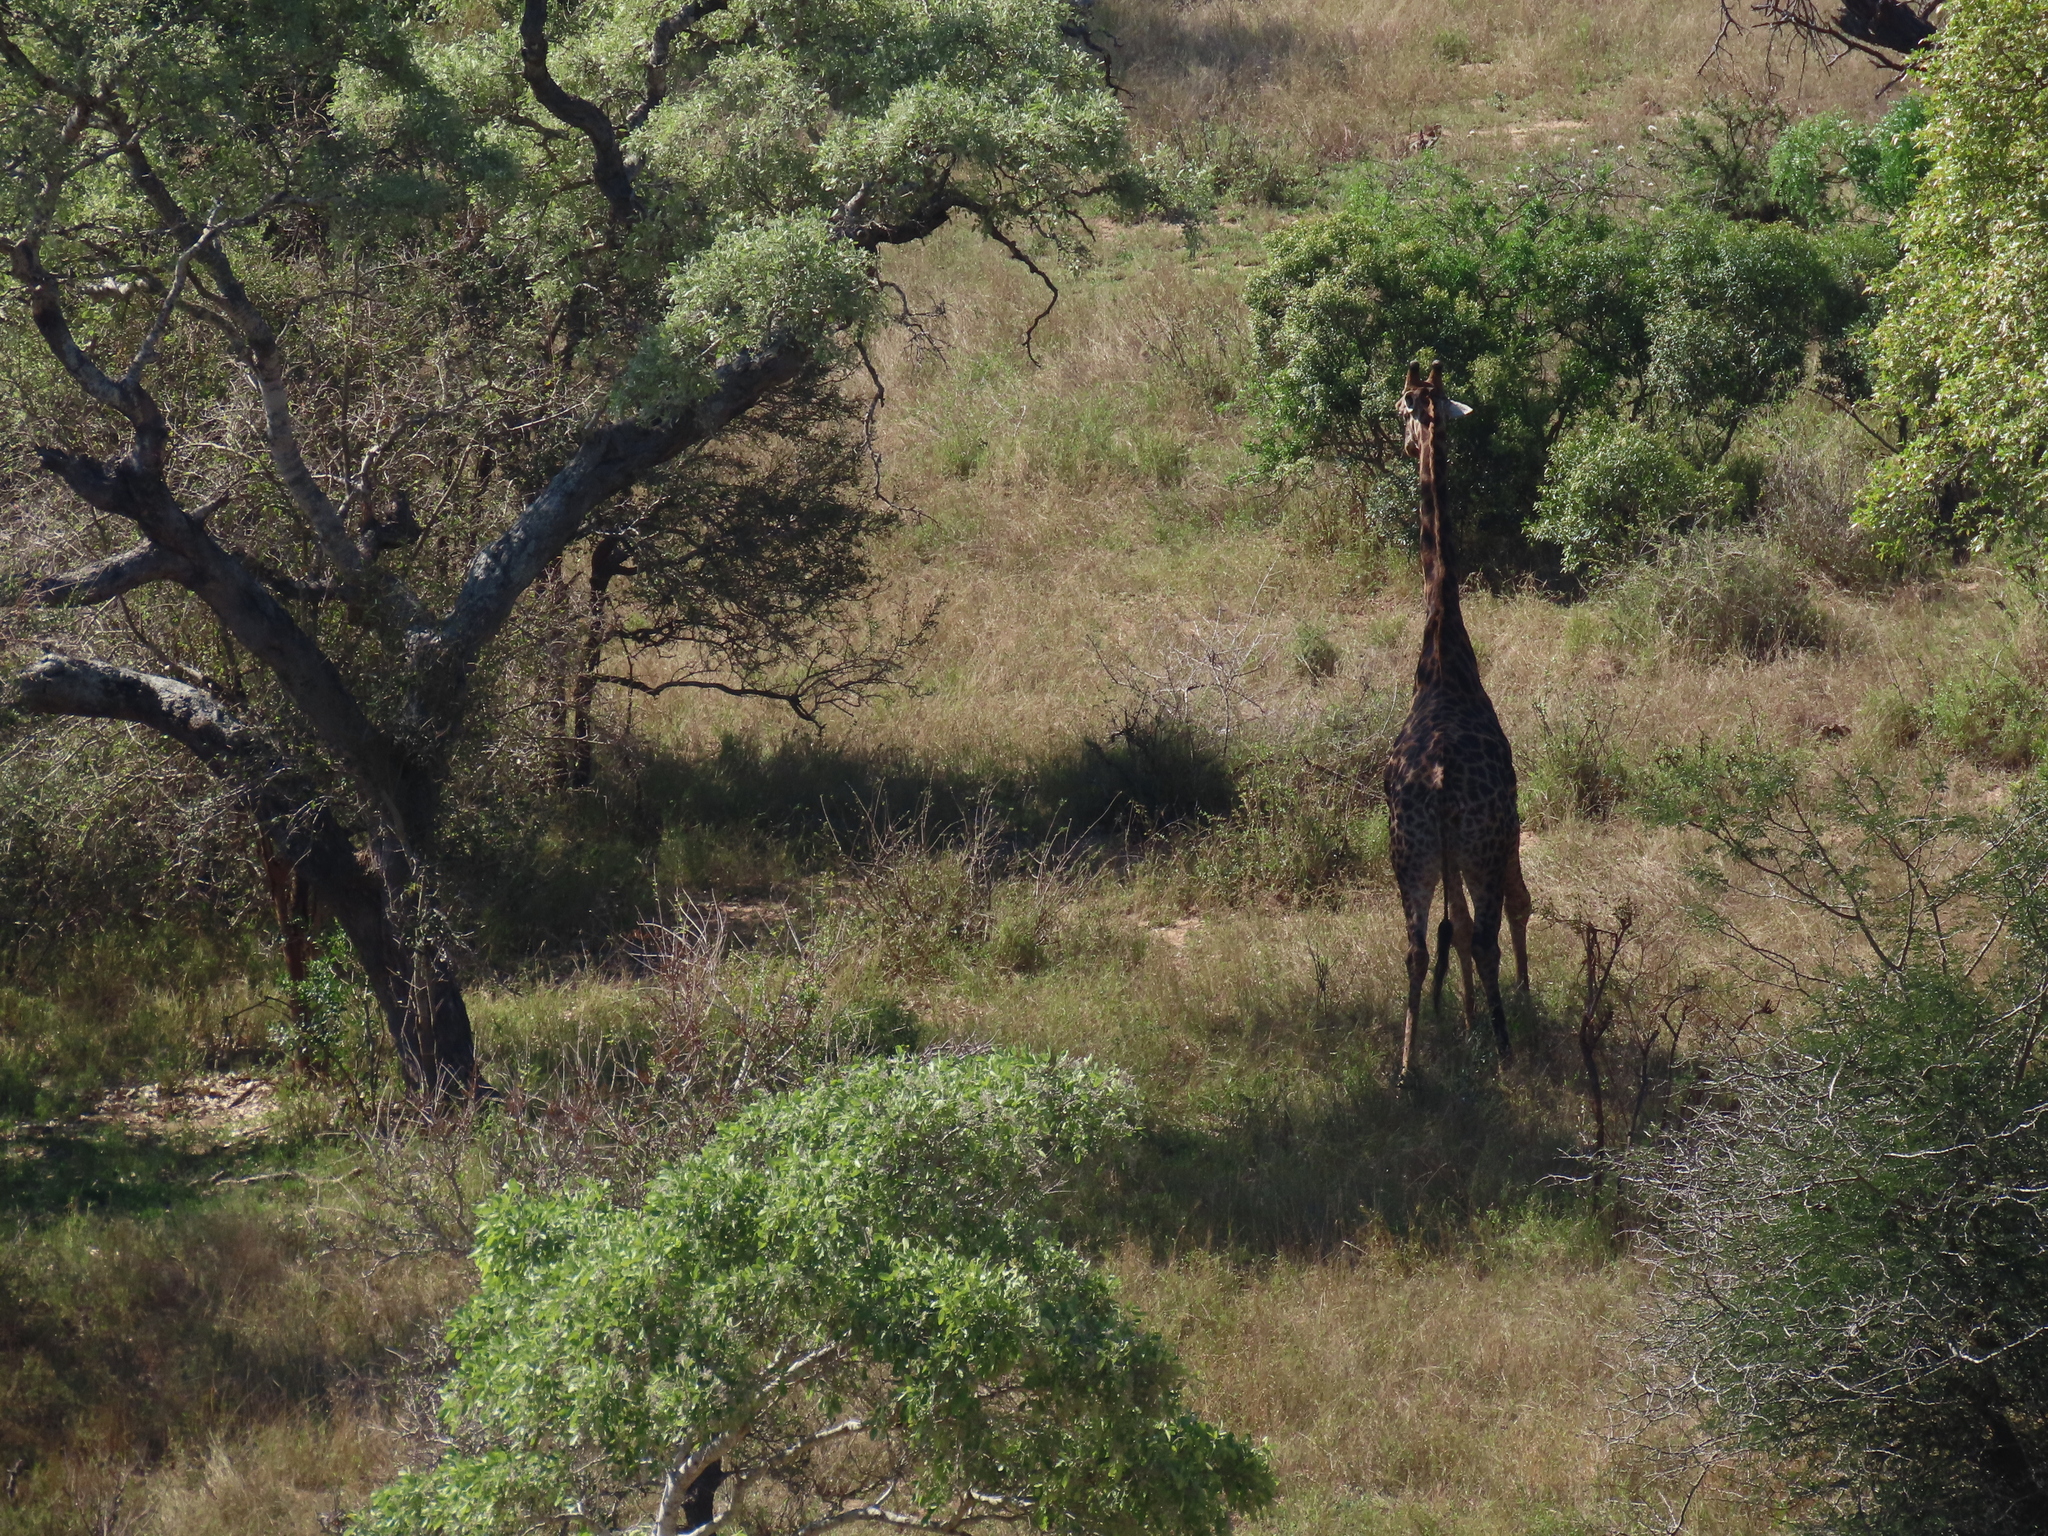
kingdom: Animalia
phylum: Chordata
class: Mammalia
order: Artiodactyla
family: Giraffidae
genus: Giraffa
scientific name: Giraffa giraffa
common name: Southern giraffe
